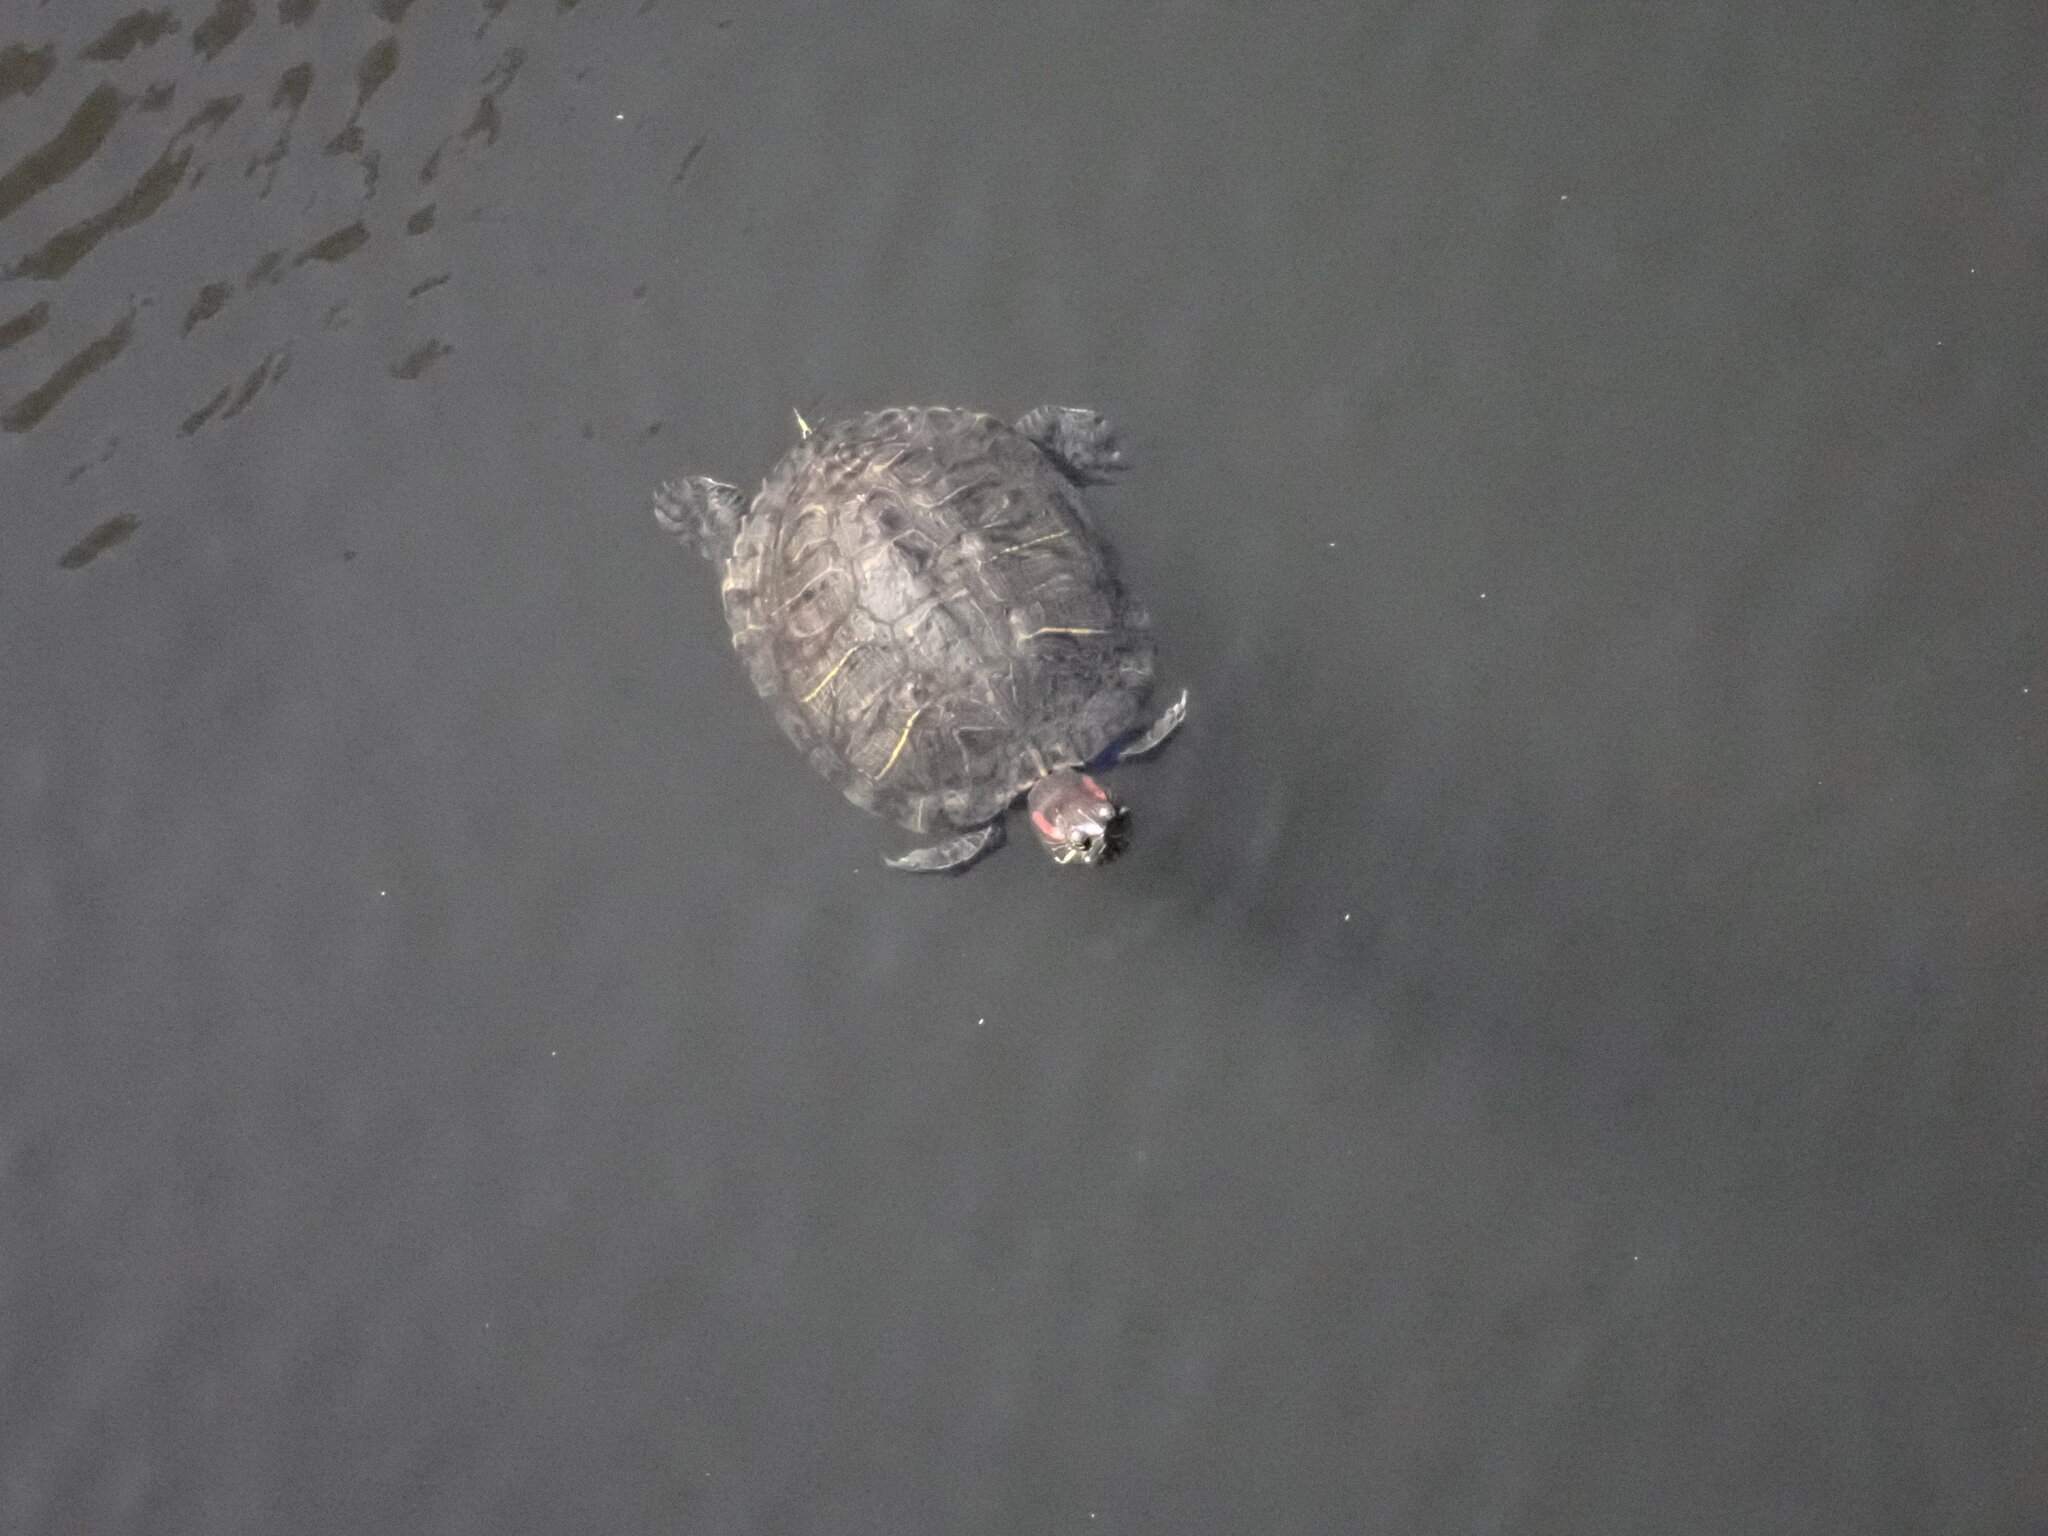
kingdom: Animalia
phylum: Chordata
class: Testudines
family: Emydidae
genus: Trachemys
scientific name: Trachemys scripta
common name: Slider
